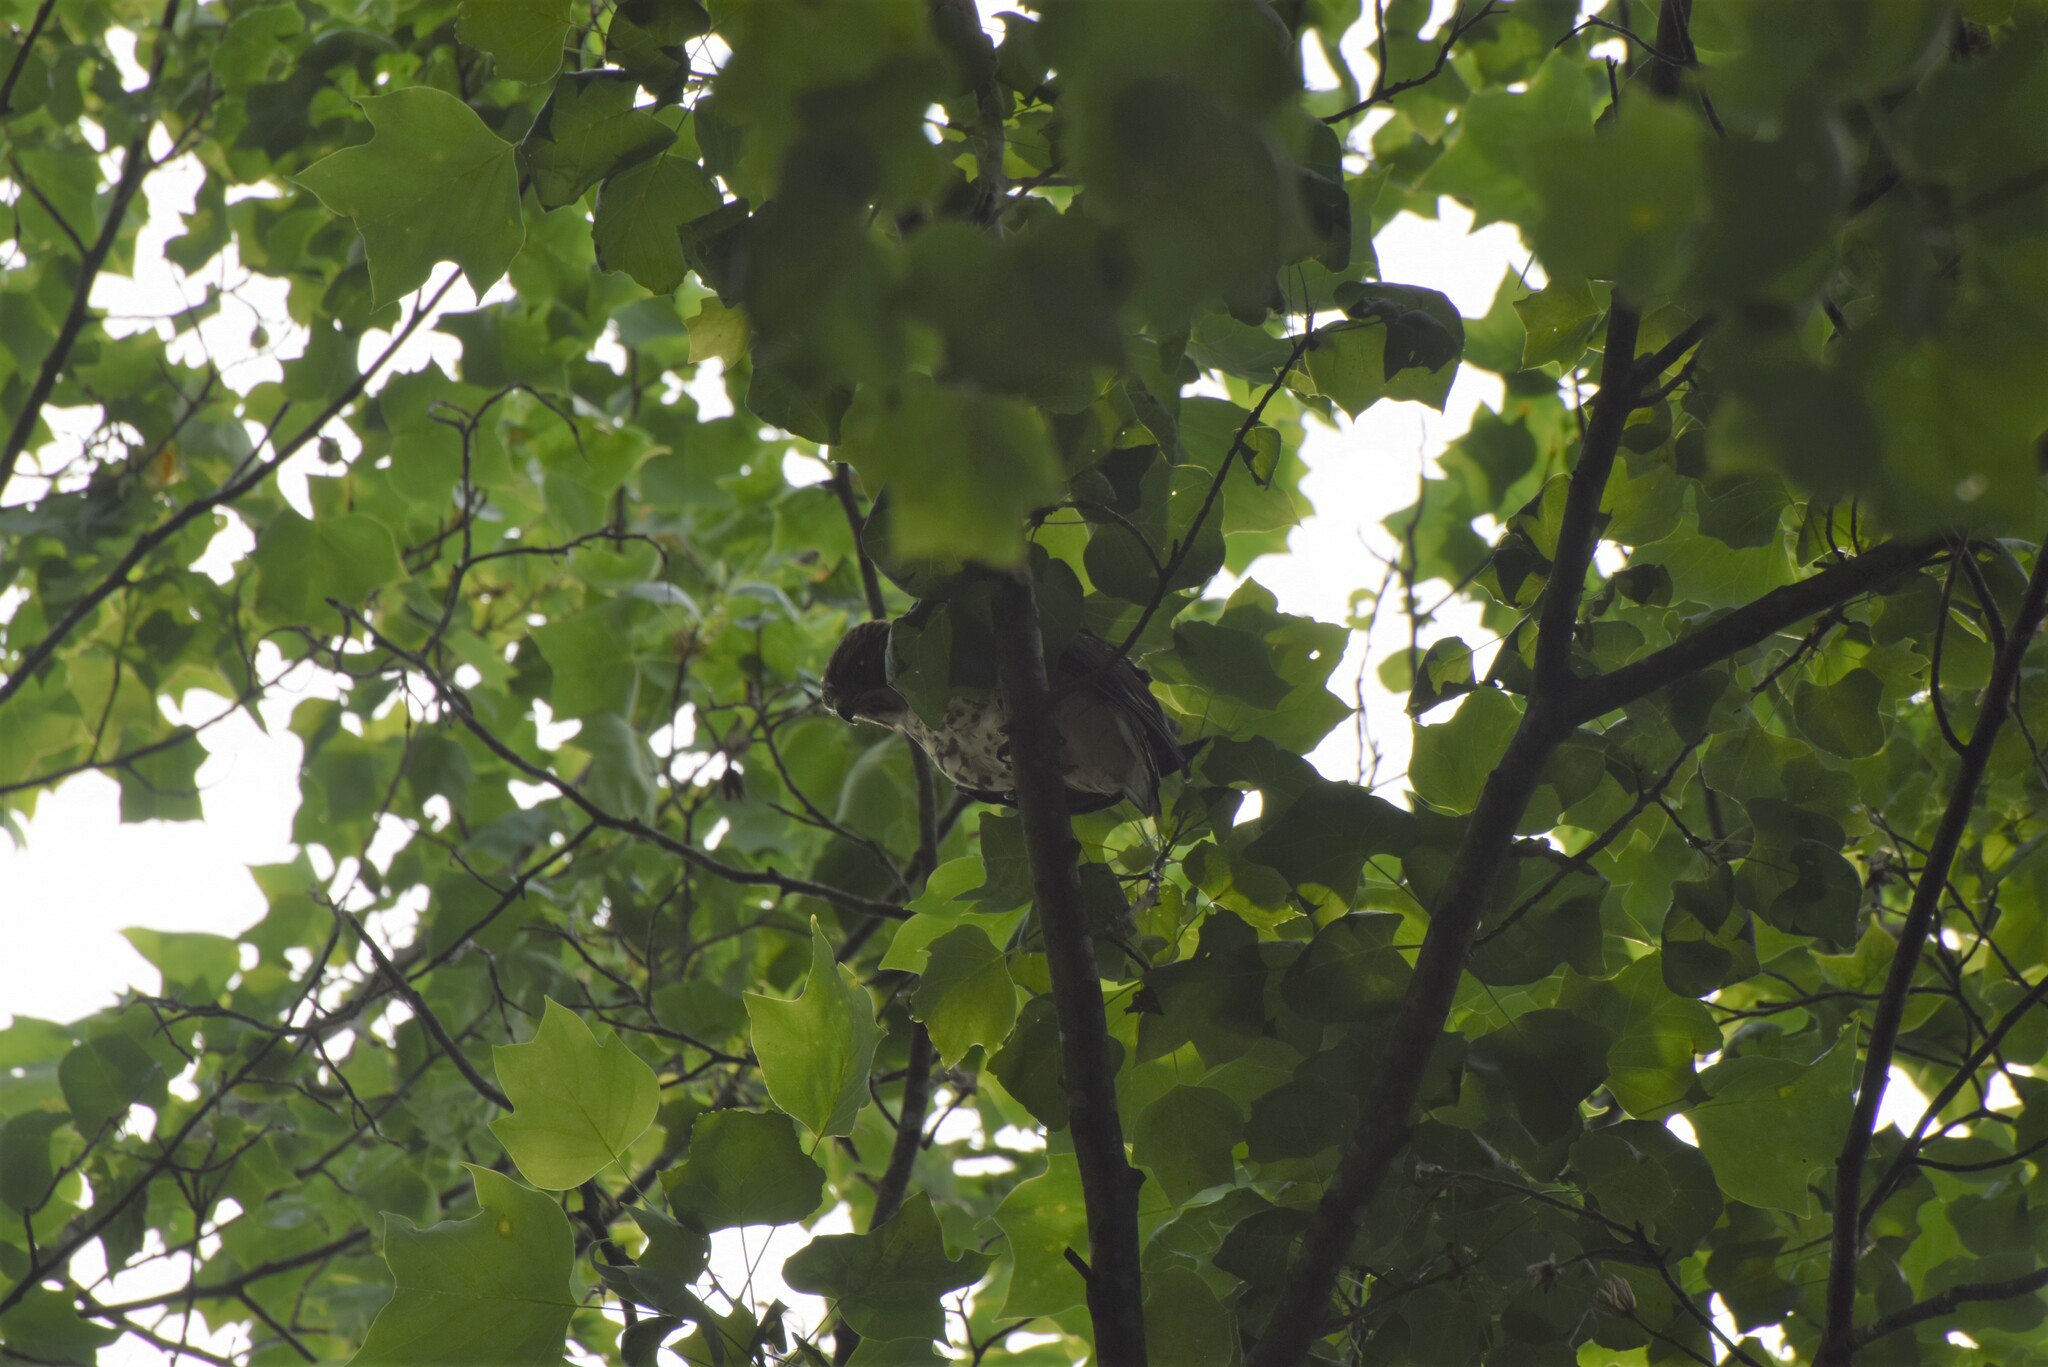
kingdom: Animalia
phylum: Chordata
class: Aves
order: Accipitriformes
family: Accipitridae
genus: Buteo
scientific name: Buteo lineatus
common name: Red-shouldered hawk
